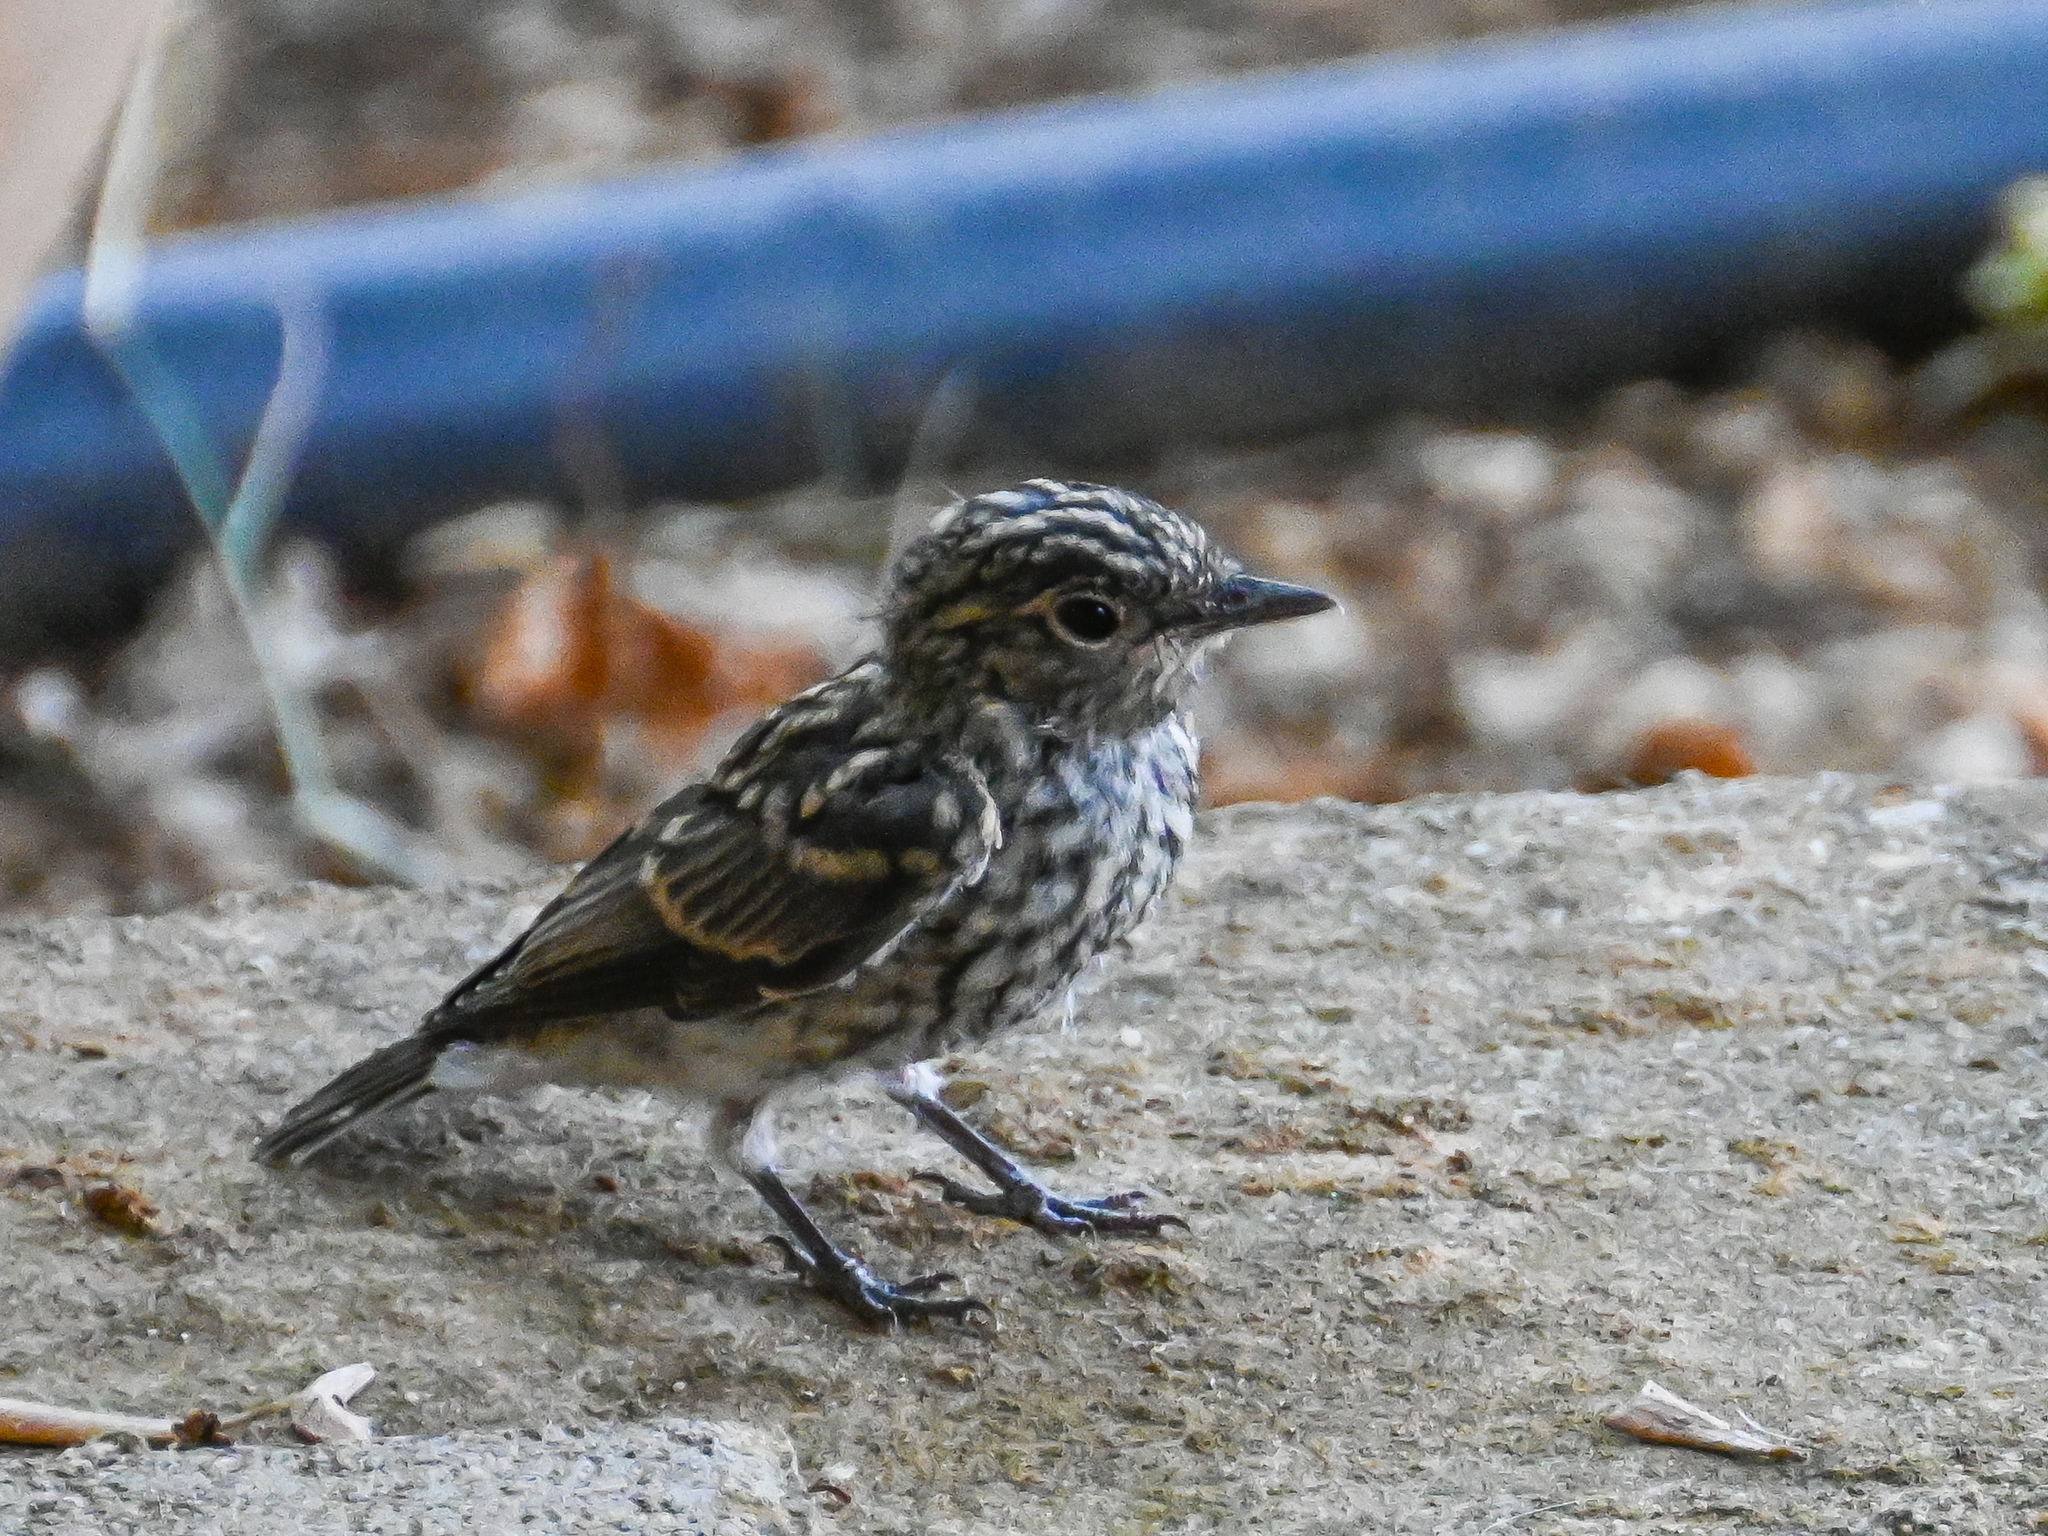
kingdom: Animalia
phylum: Chordata
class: Aves
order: Passeriformes
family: Muscicapidae
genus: Muscicapa
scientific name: Muscicapa striata
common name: Spotted flycatcher
